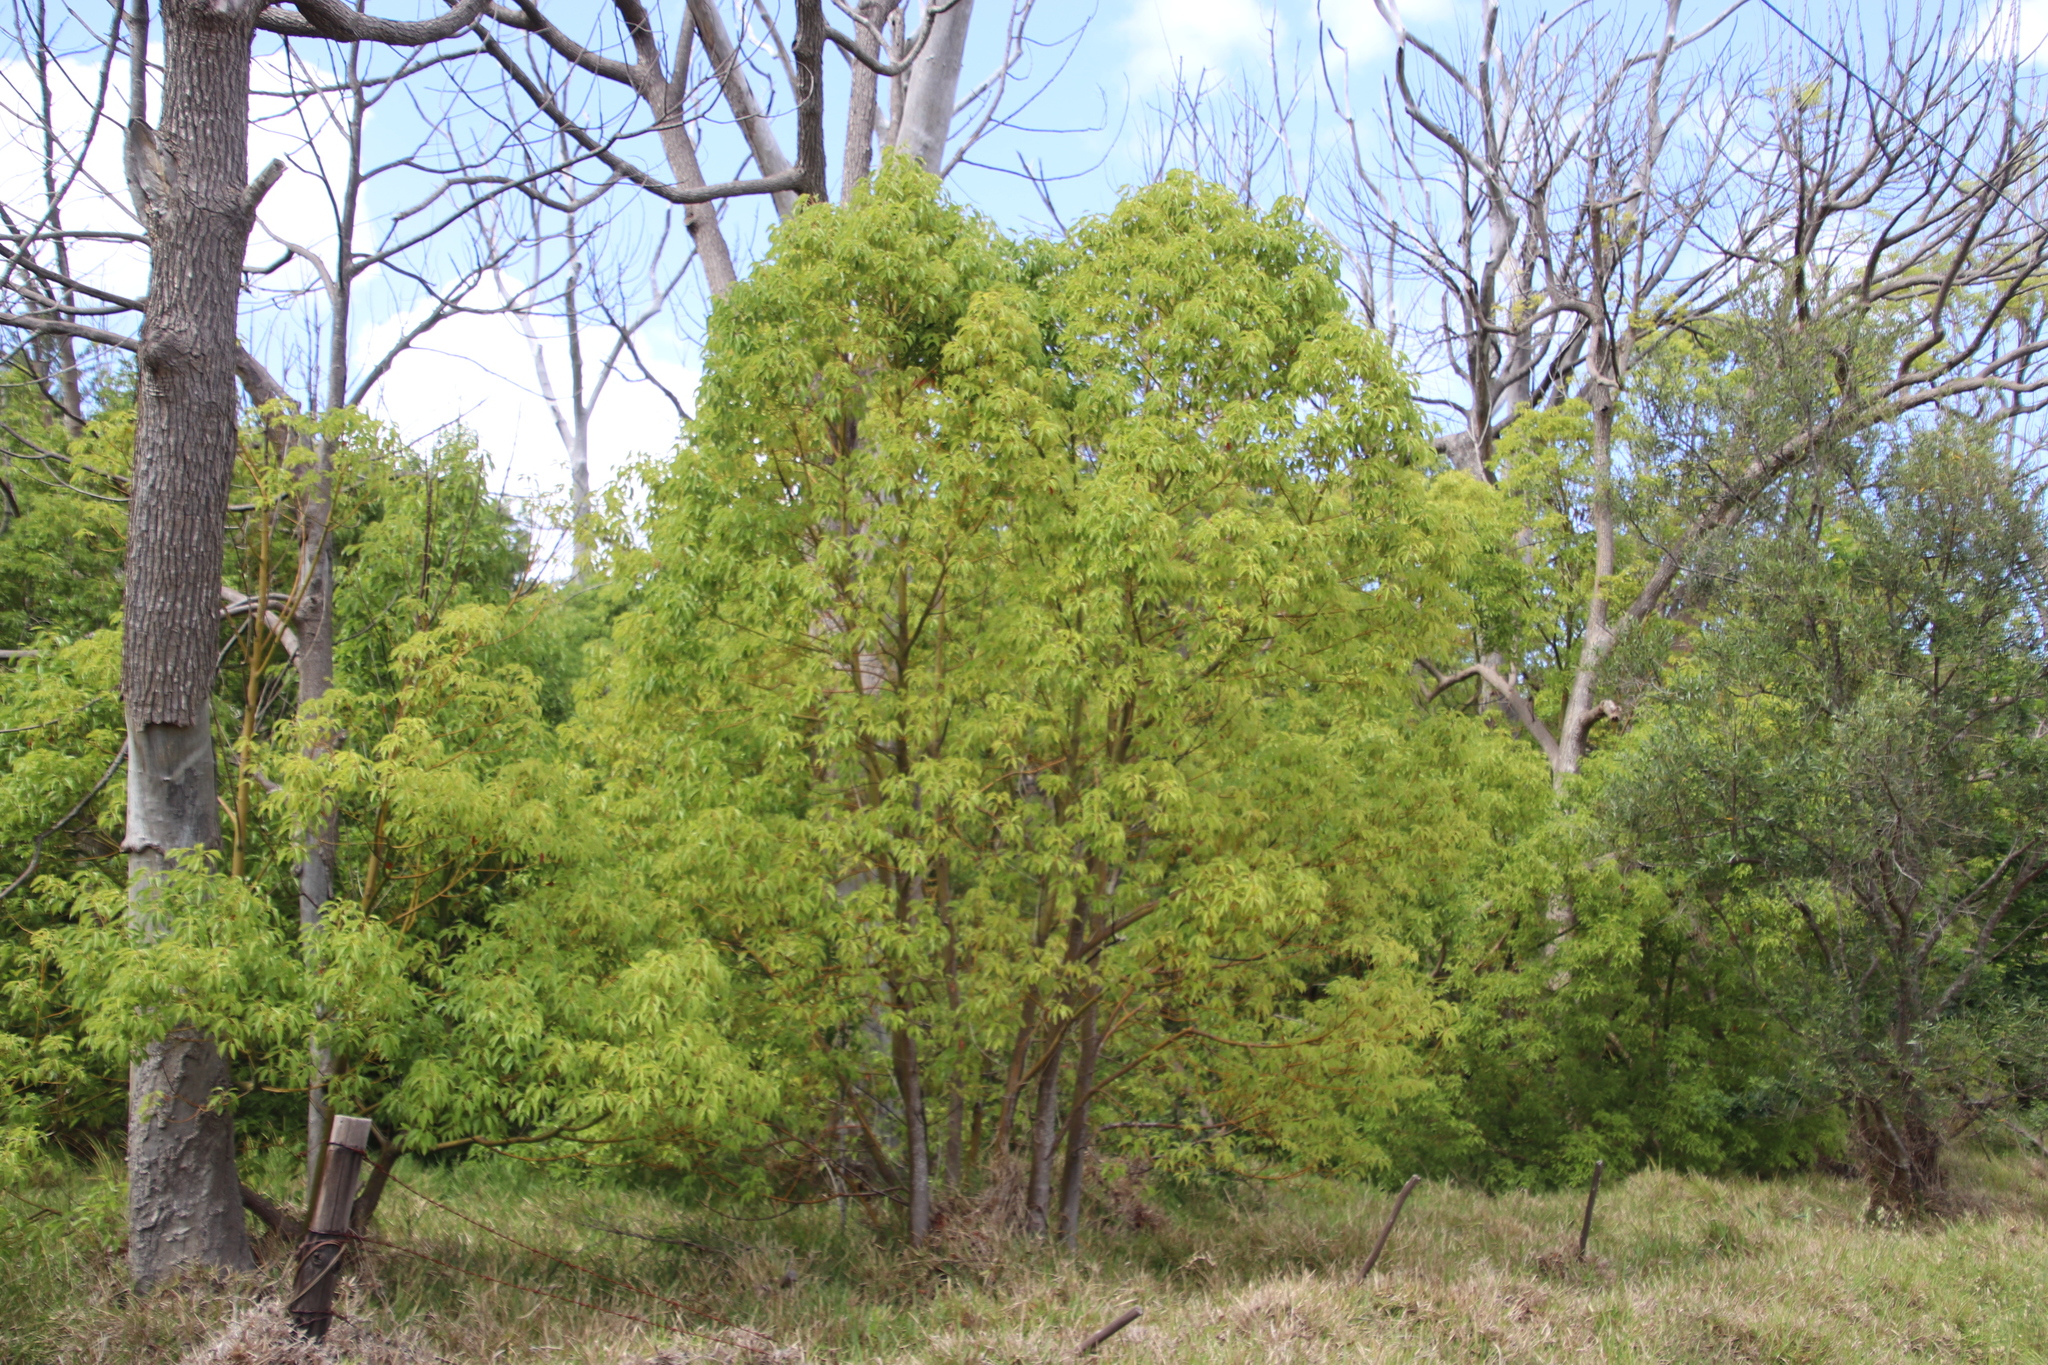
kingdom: Plantae
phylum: Tracheophyta
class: Magnoliopsida
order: Laurales
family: Lauraceae
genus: Cinnamomum
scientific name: Cinnamomum camphora
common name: Camphortree
